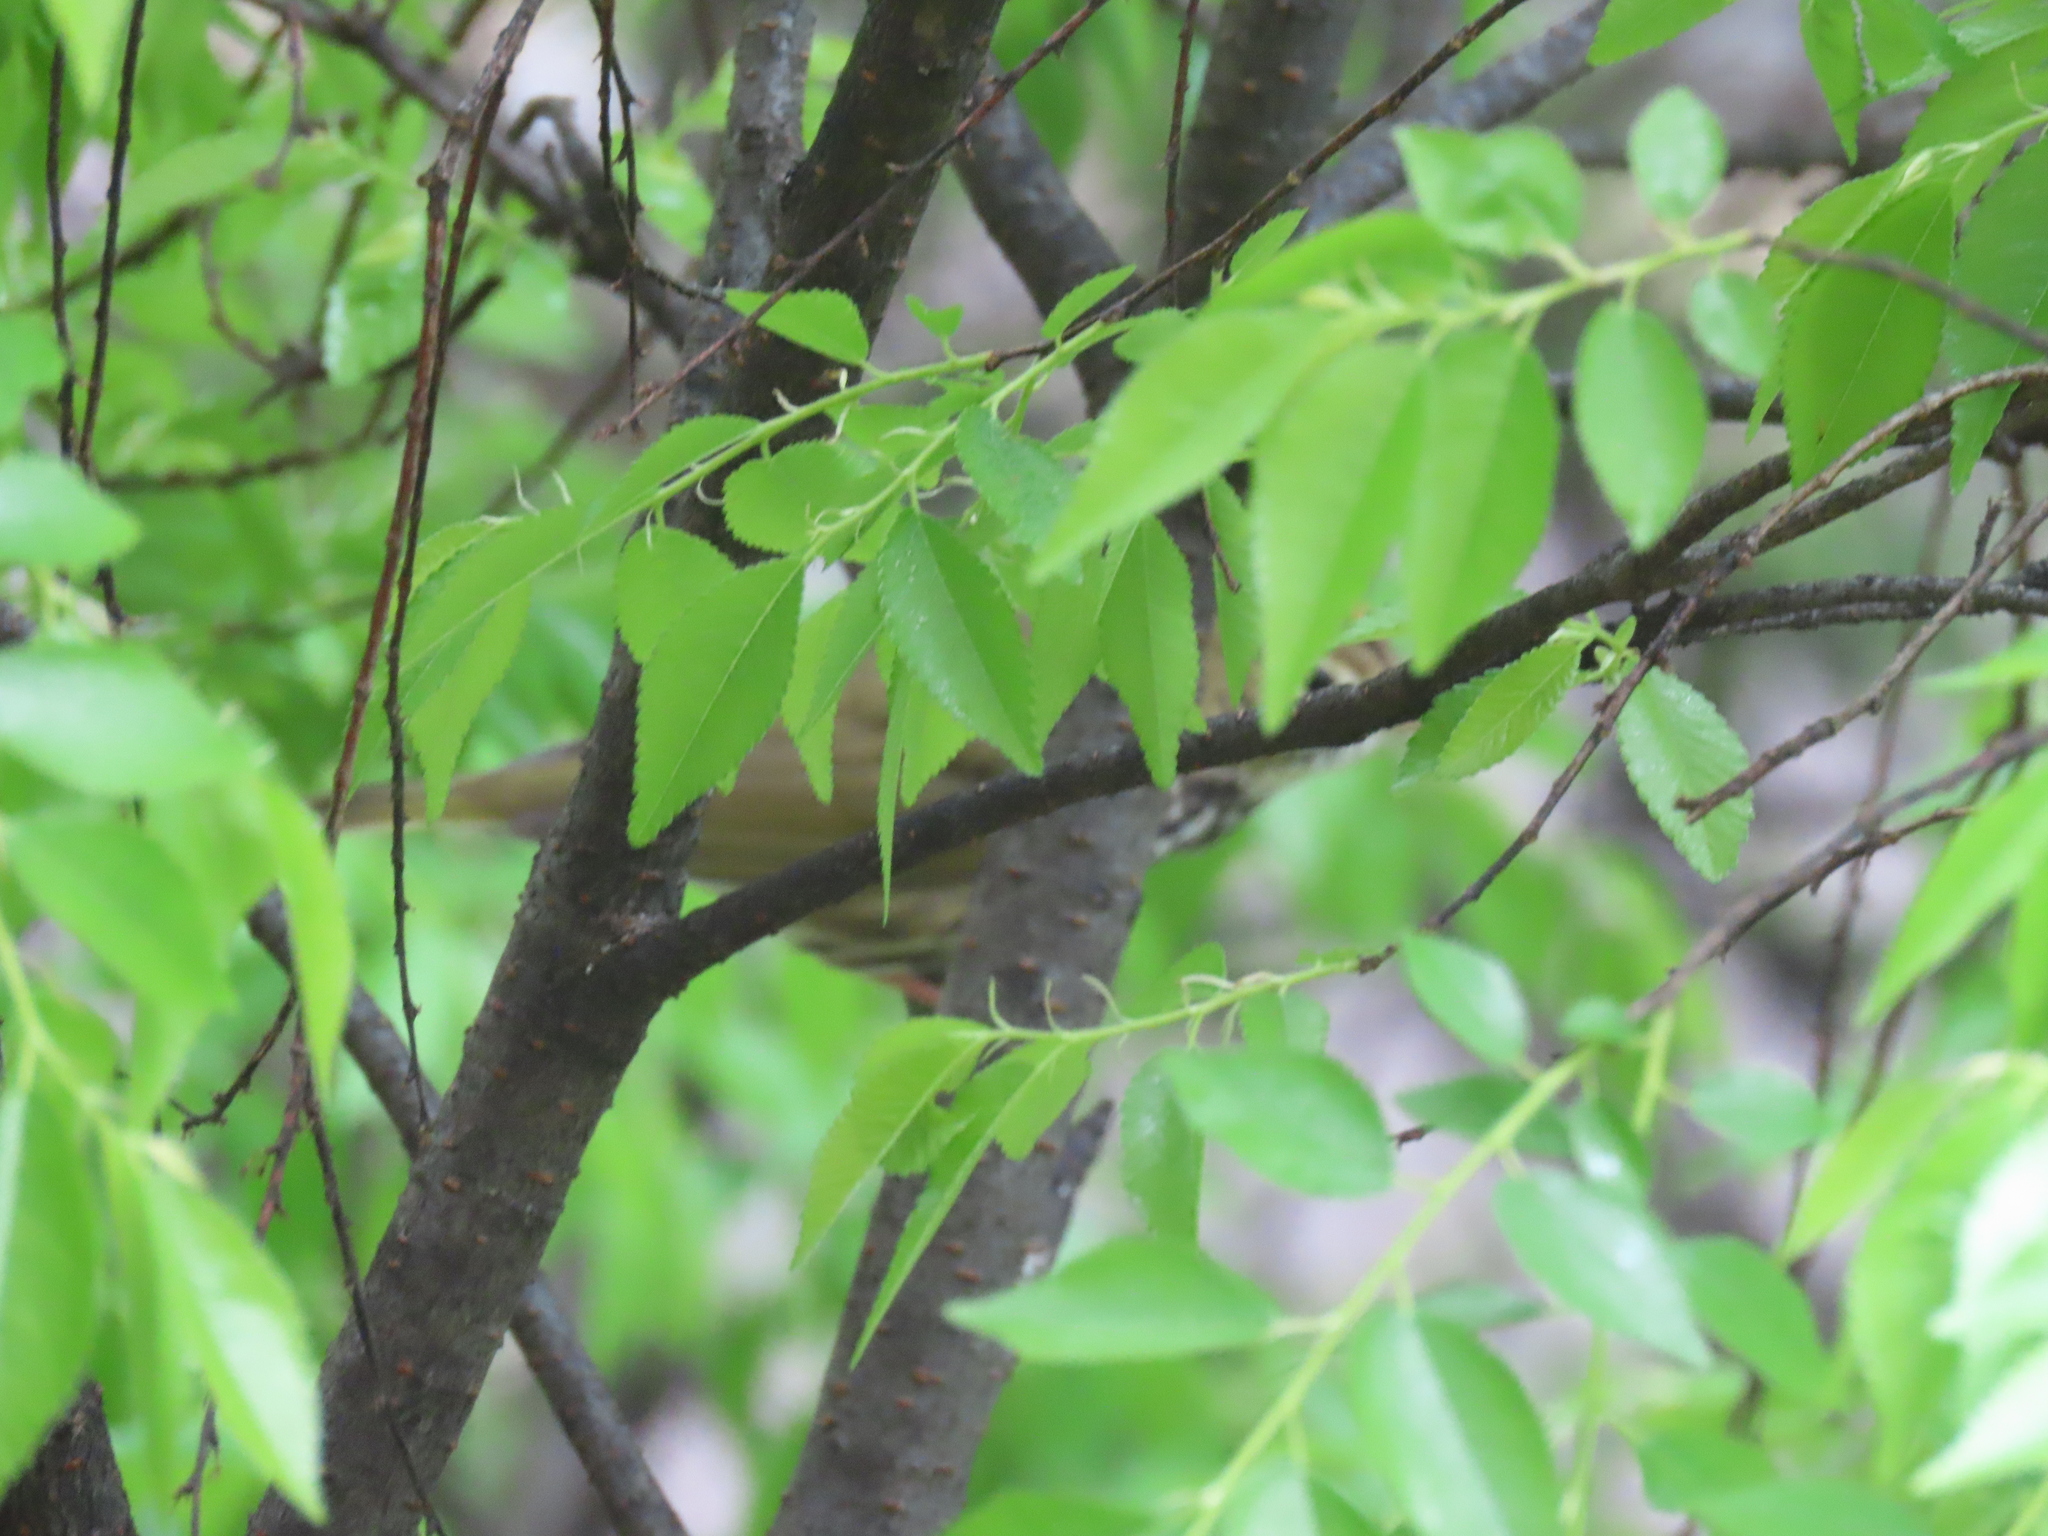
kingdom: Animalia
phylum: Chordata
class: Aves
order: Passeriformes
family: Parulidae
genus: Seiurus
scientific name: Seiurus aurocapilla
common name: Ovenbird
